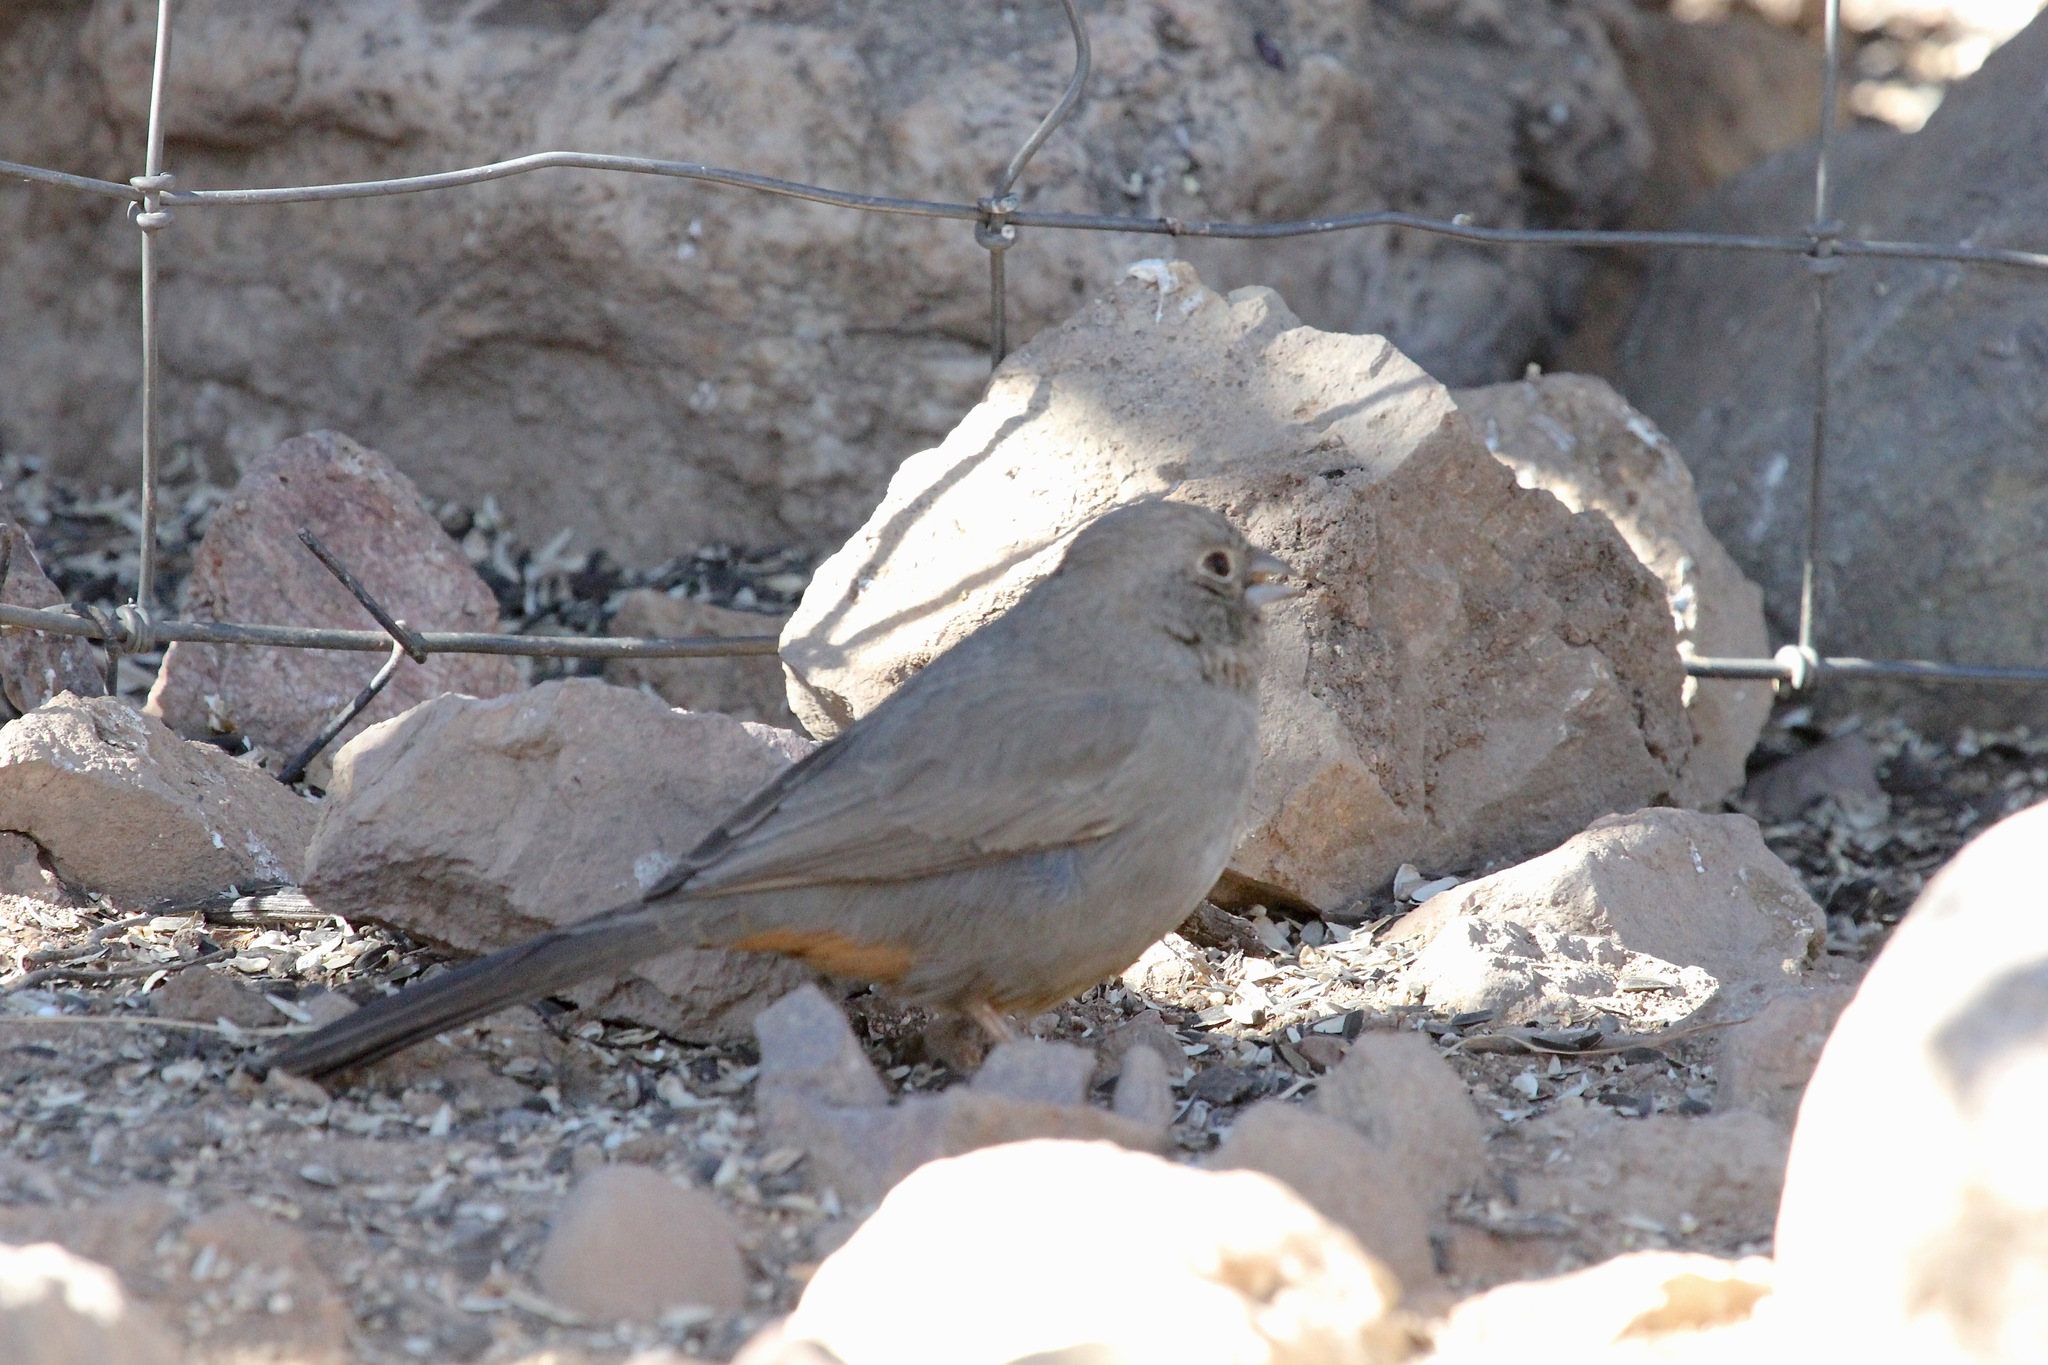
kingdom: Animalia
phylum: Chordata
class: Aves
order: Passeriformes
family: Passerellidae
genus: Melozone
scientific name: Melozone fusca
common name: Canyon towhee
